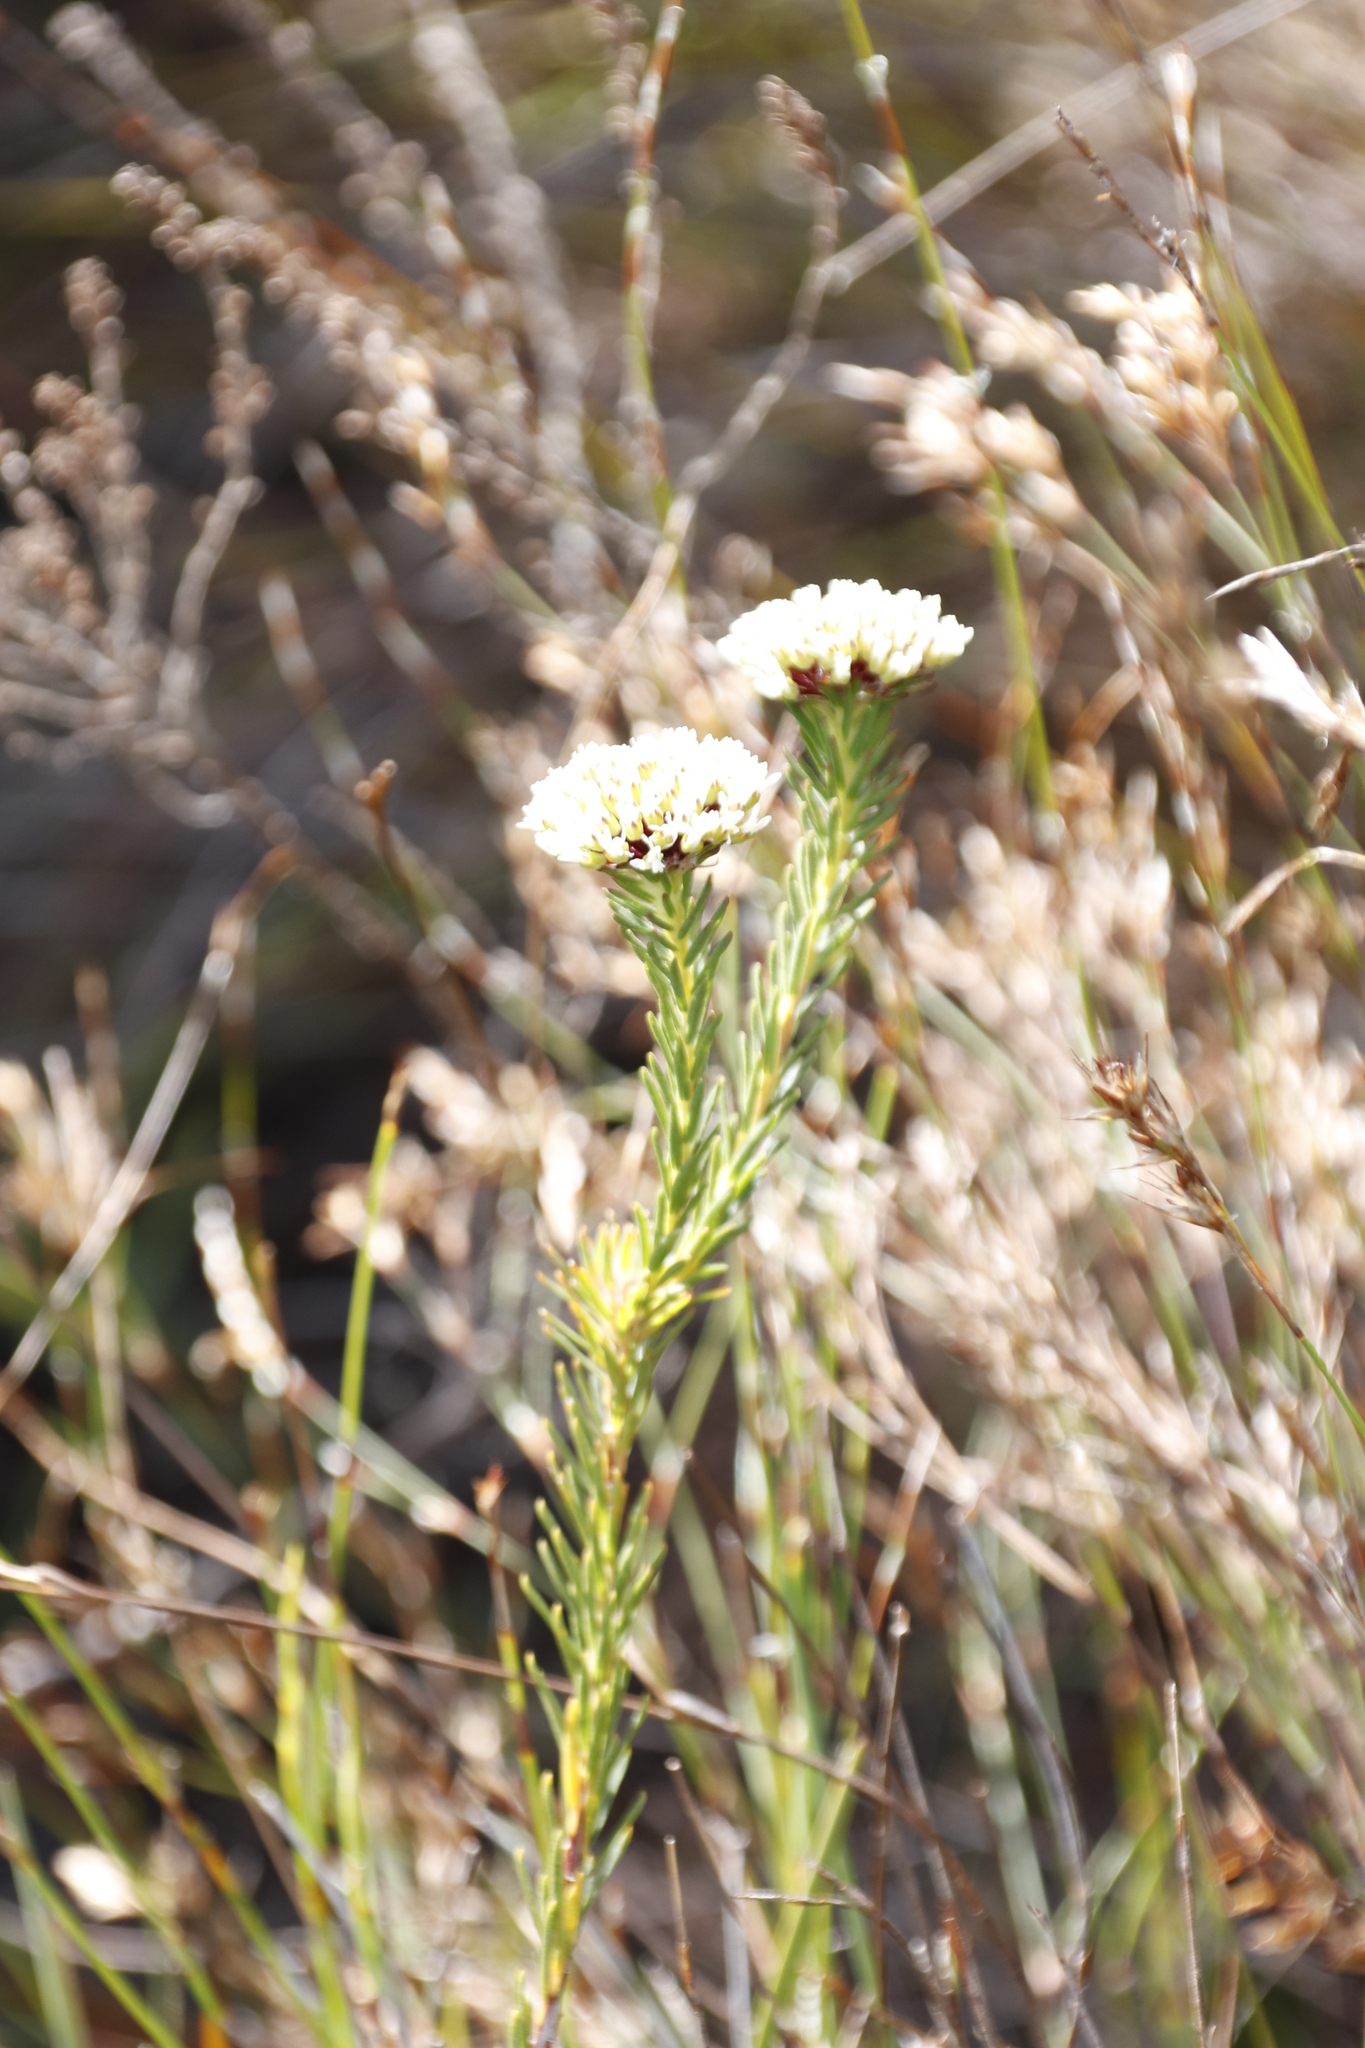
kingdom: Plantae
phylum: Tracheophyta
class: Magnoliopsida
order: Sapindales
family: Rutaceae
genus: Agathosma
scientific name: Agathosma bifida
